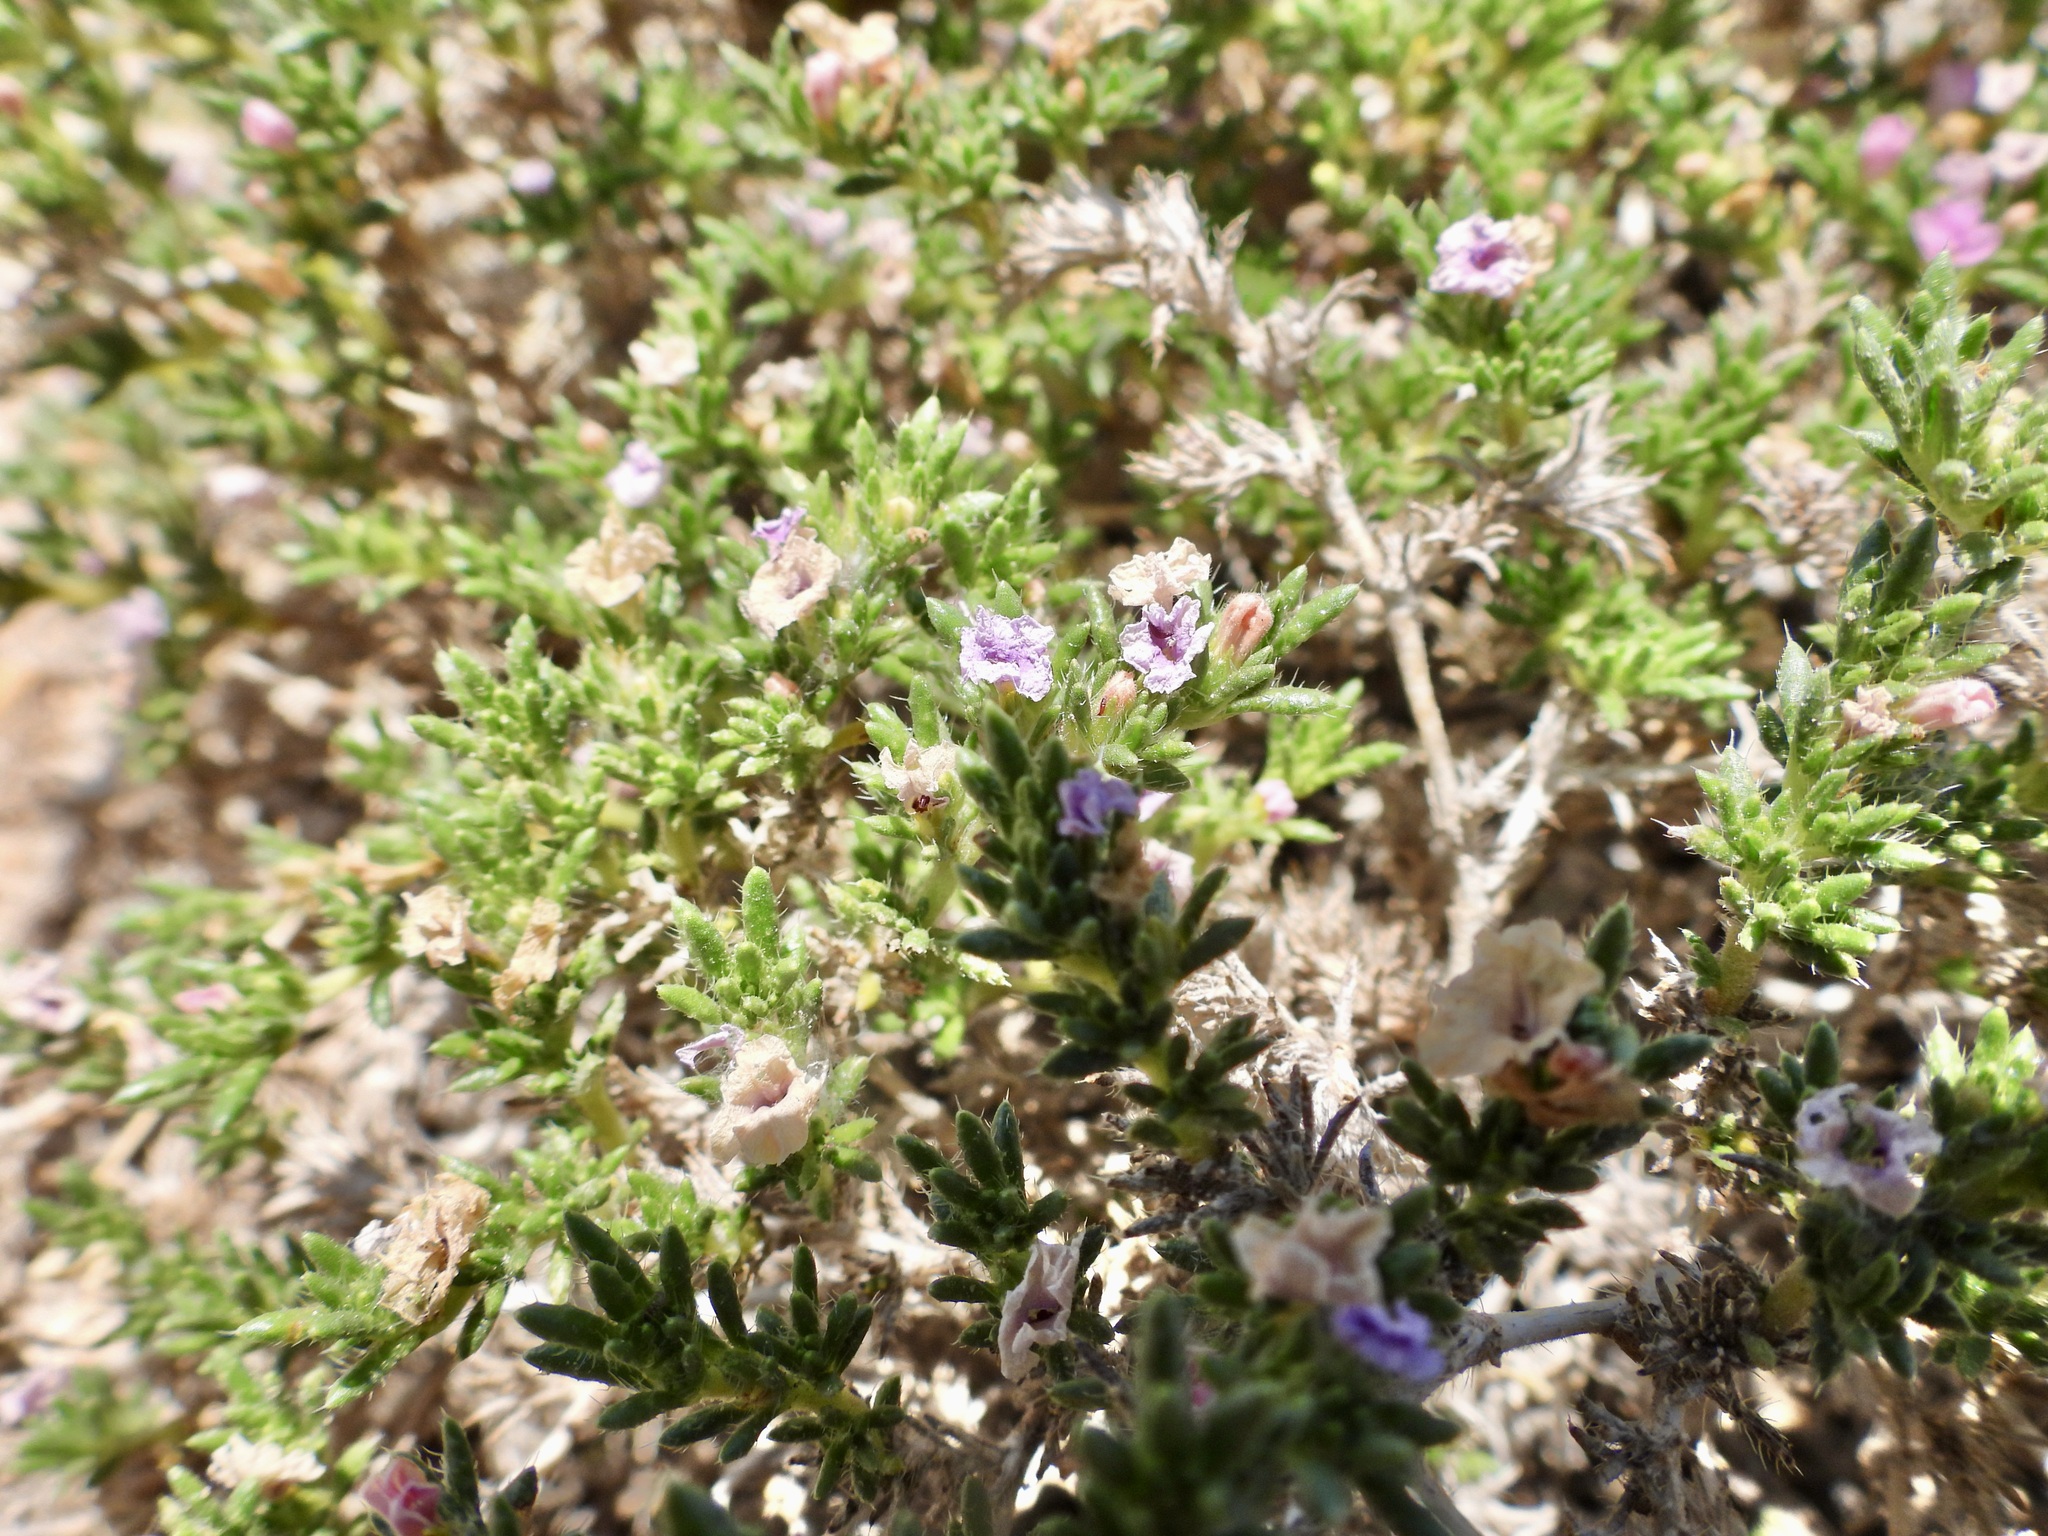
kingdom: Plantae
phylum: Tracheophyta
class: Magnoliopsida
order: Boraginales
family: Ehretiaceae
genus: Tiquilia
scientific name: Tiquilia hispidissima
